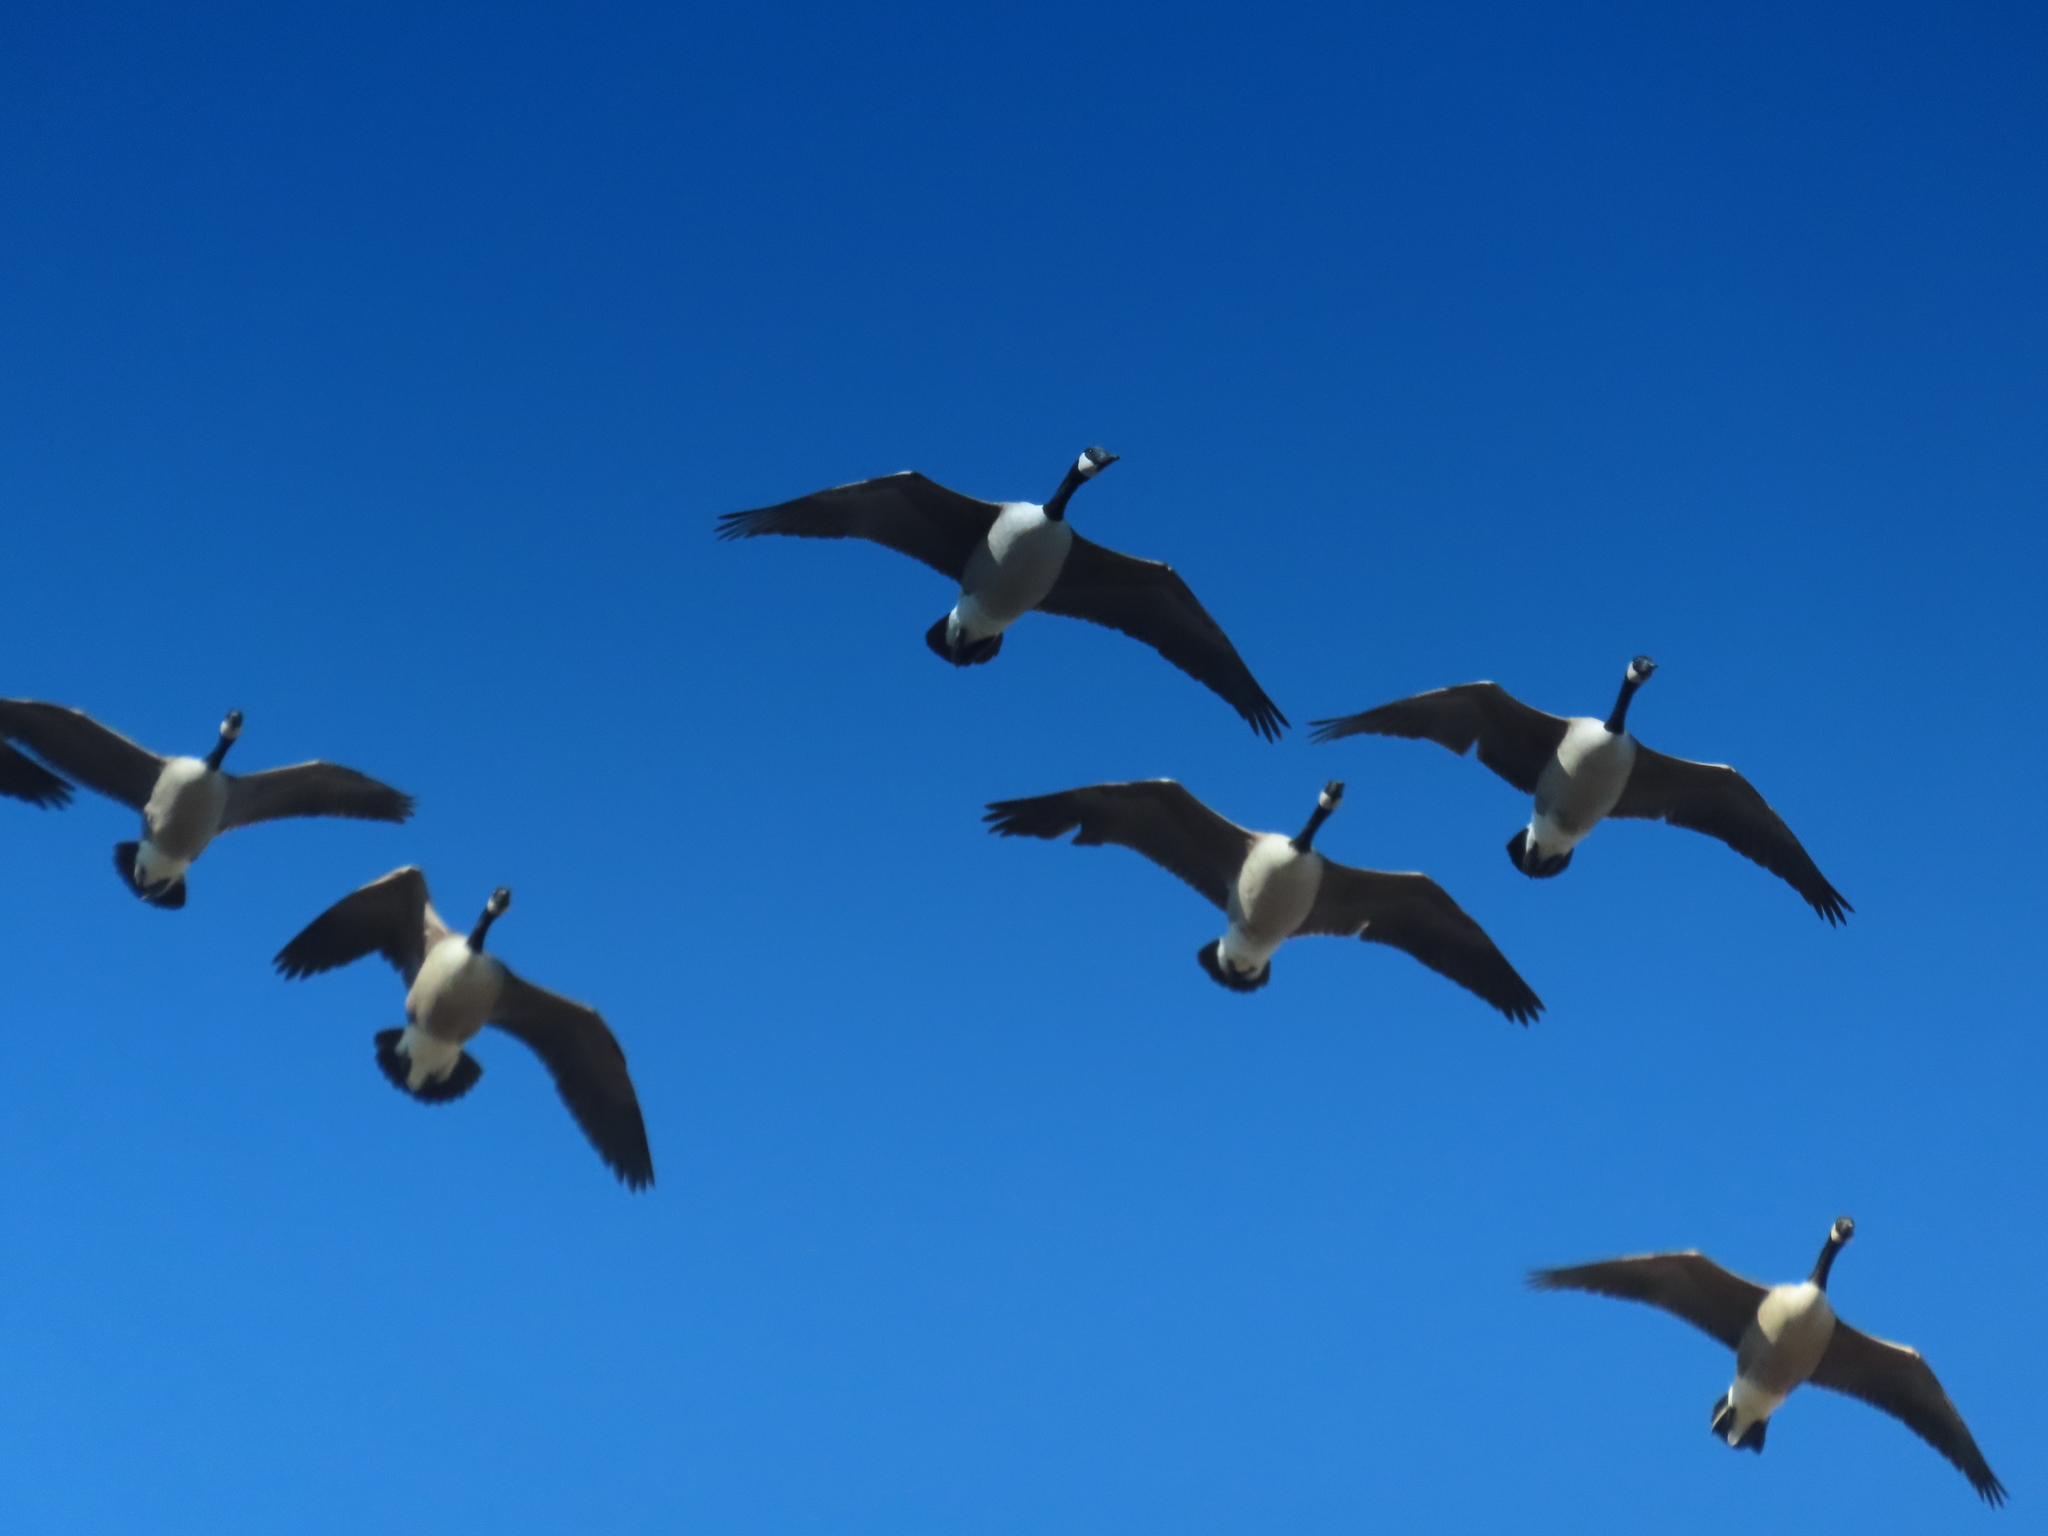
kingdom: Animalia
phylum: Chordata
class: Aves
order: Anseriformes
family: Anatidae
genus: Branta
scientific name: Branta canadensis
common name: Canada goose
